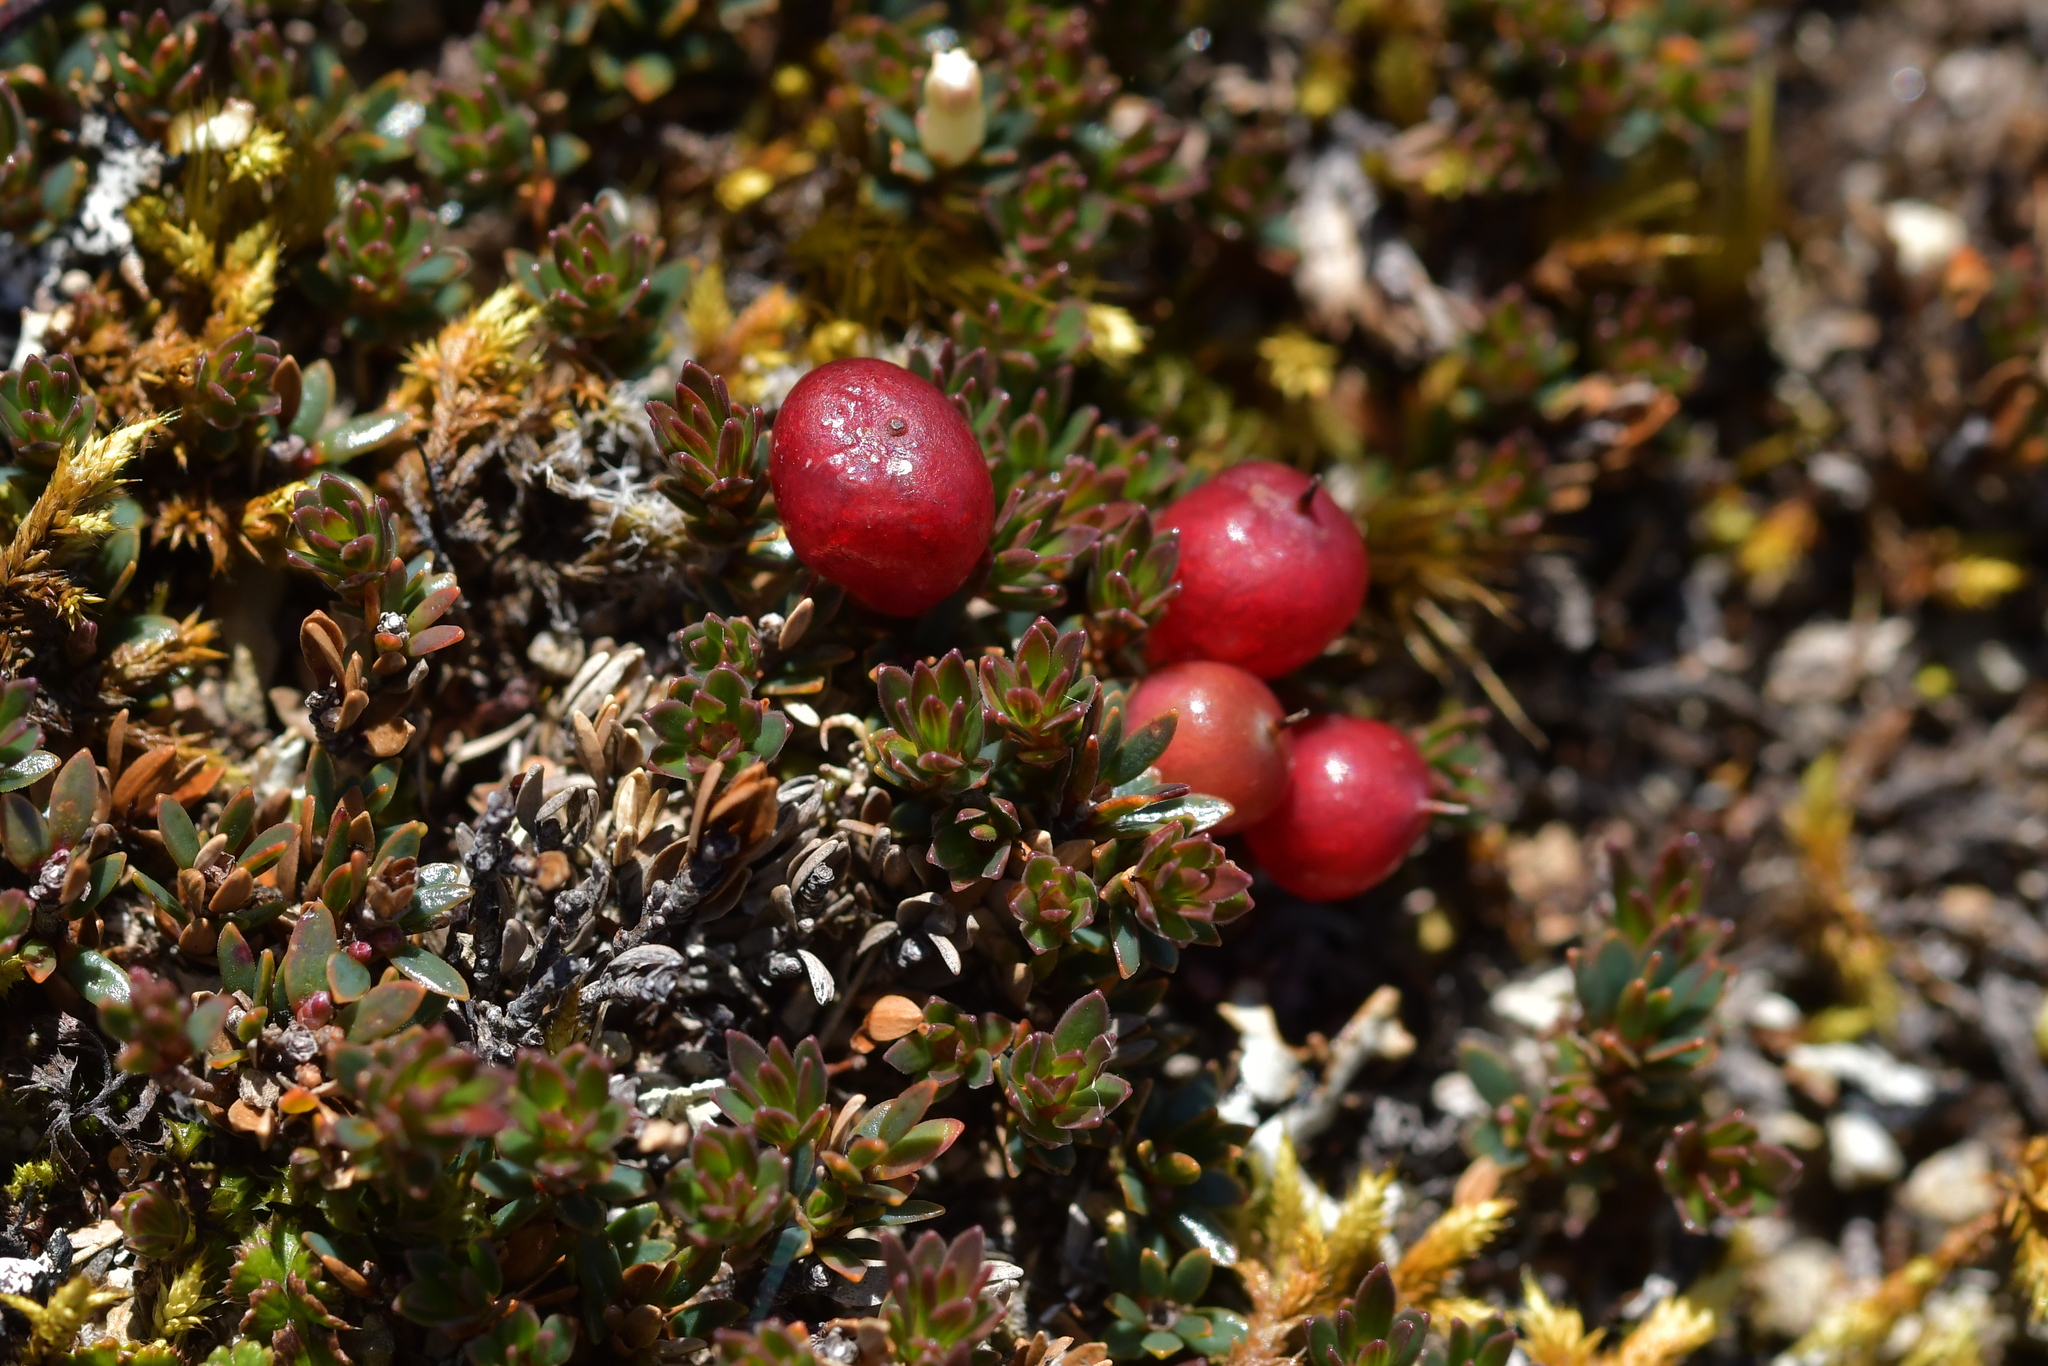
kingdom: Plantae
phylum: Tracheophyta
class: Magnoliopsida
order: Ericales
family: Ericaceae
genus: Pentachondra
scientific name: Pentachondra pumila
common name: Carpet-heath
